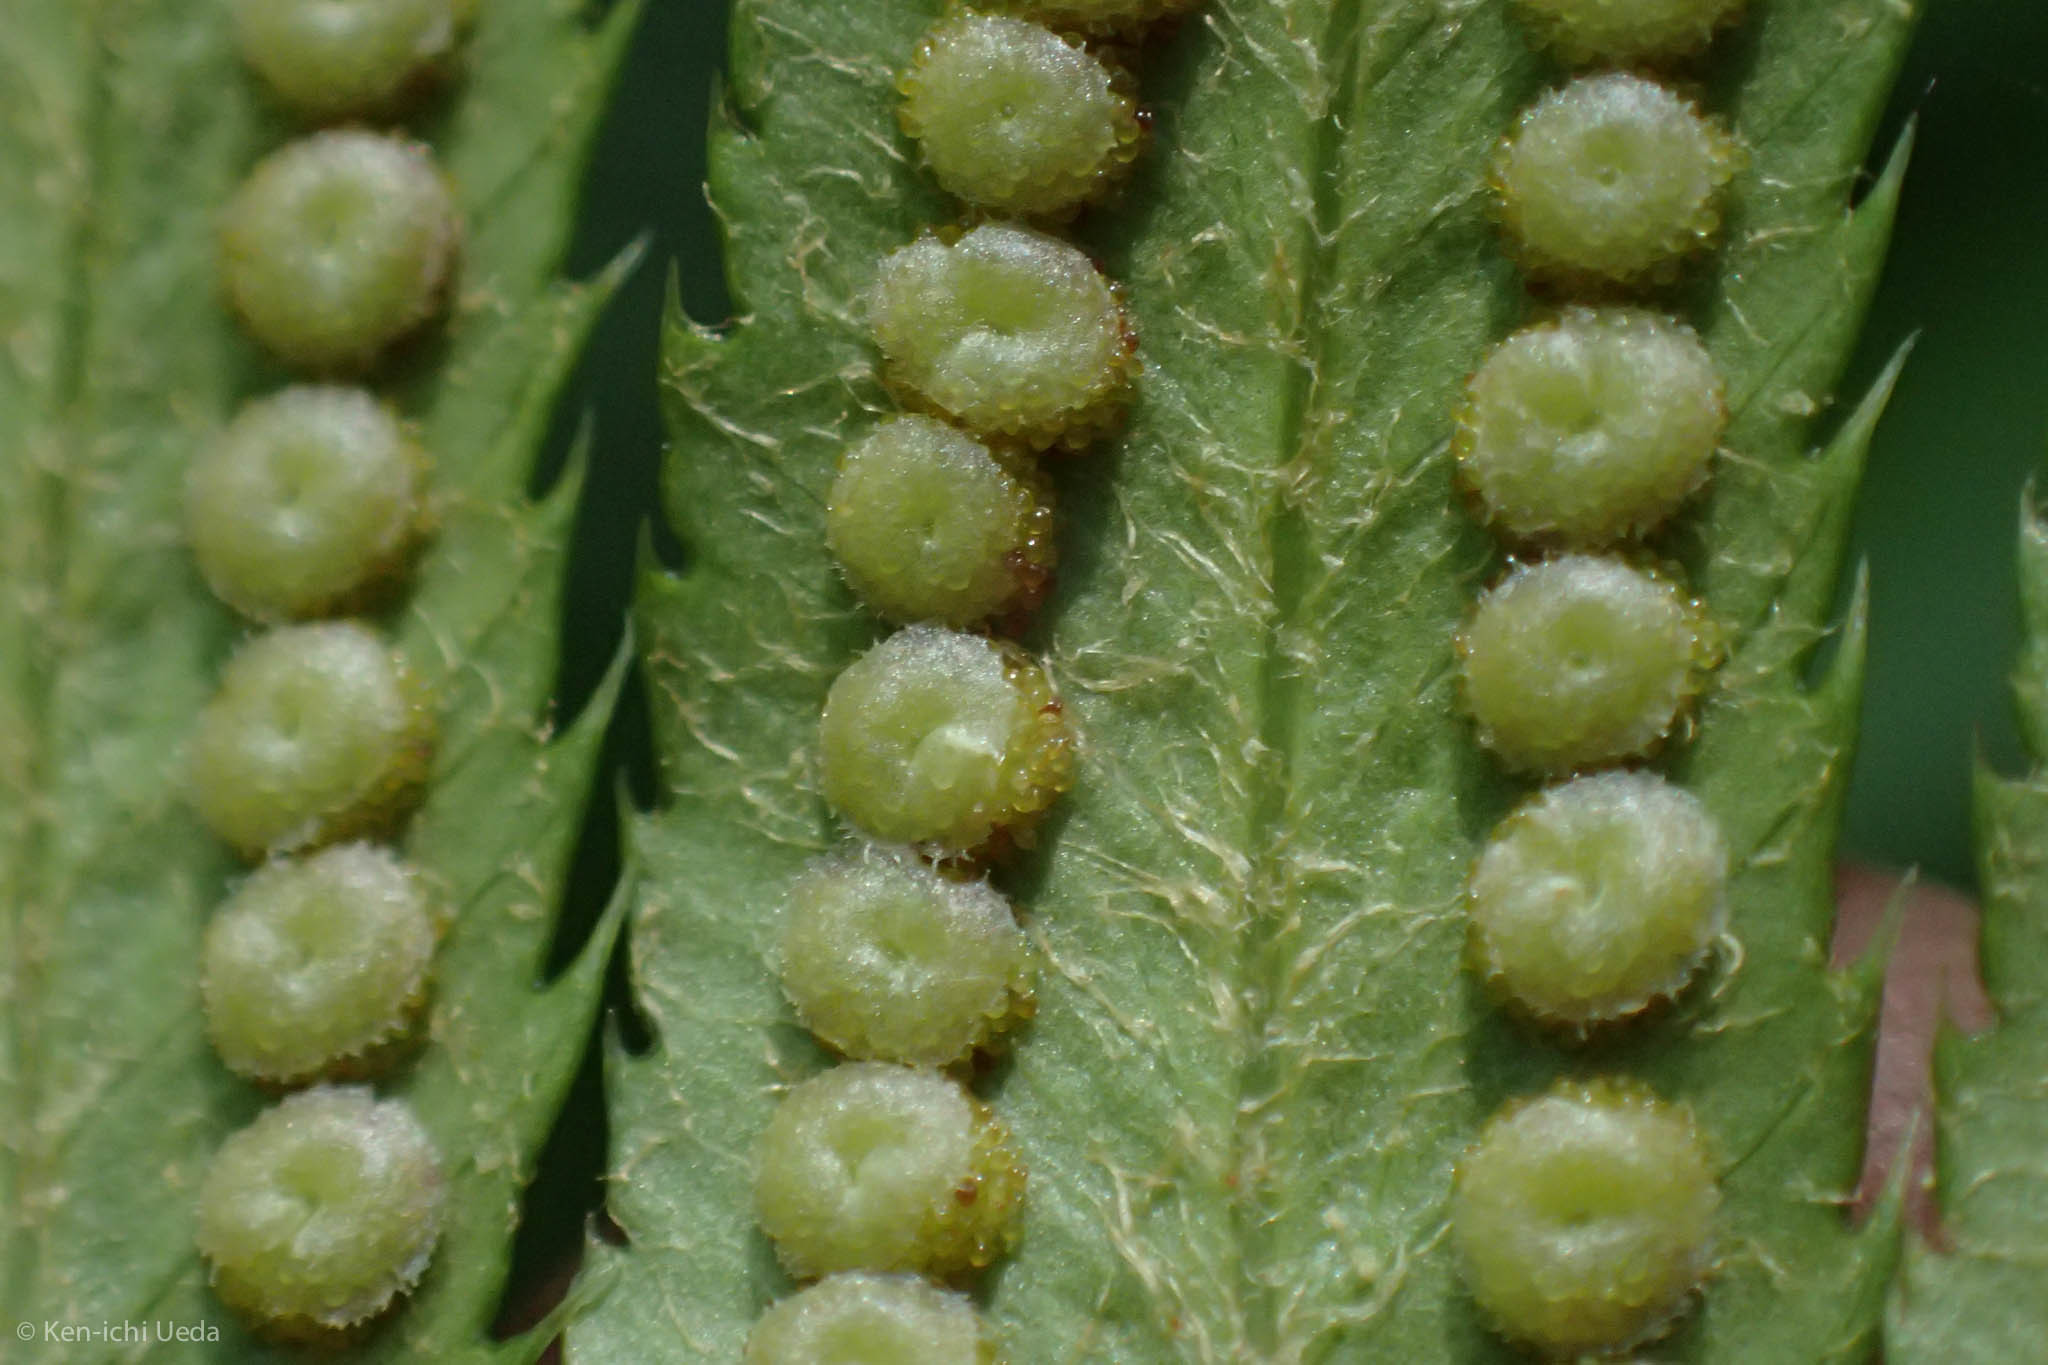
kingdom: Plantae
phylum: Tracheophyta
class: Polypodiopsida
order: Polypodiales
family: Dryopteridaceae
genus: Polystichum
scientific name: Polystichum munitum
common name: Western sword-fern
